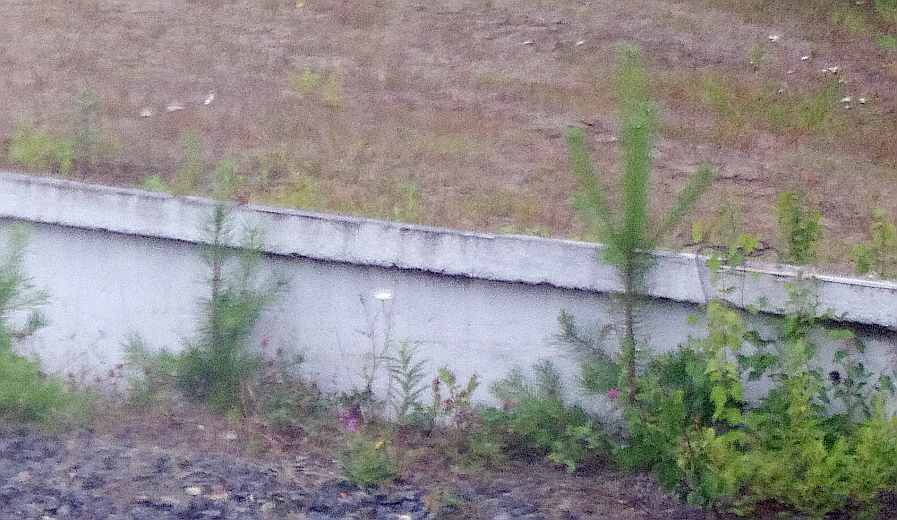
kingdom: Plantae
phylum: Tracheophyta
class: Pinopsida
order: Pinales
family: Pinaceae
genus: Pinus
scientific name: Pinus sylvestris
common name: Scots pine
